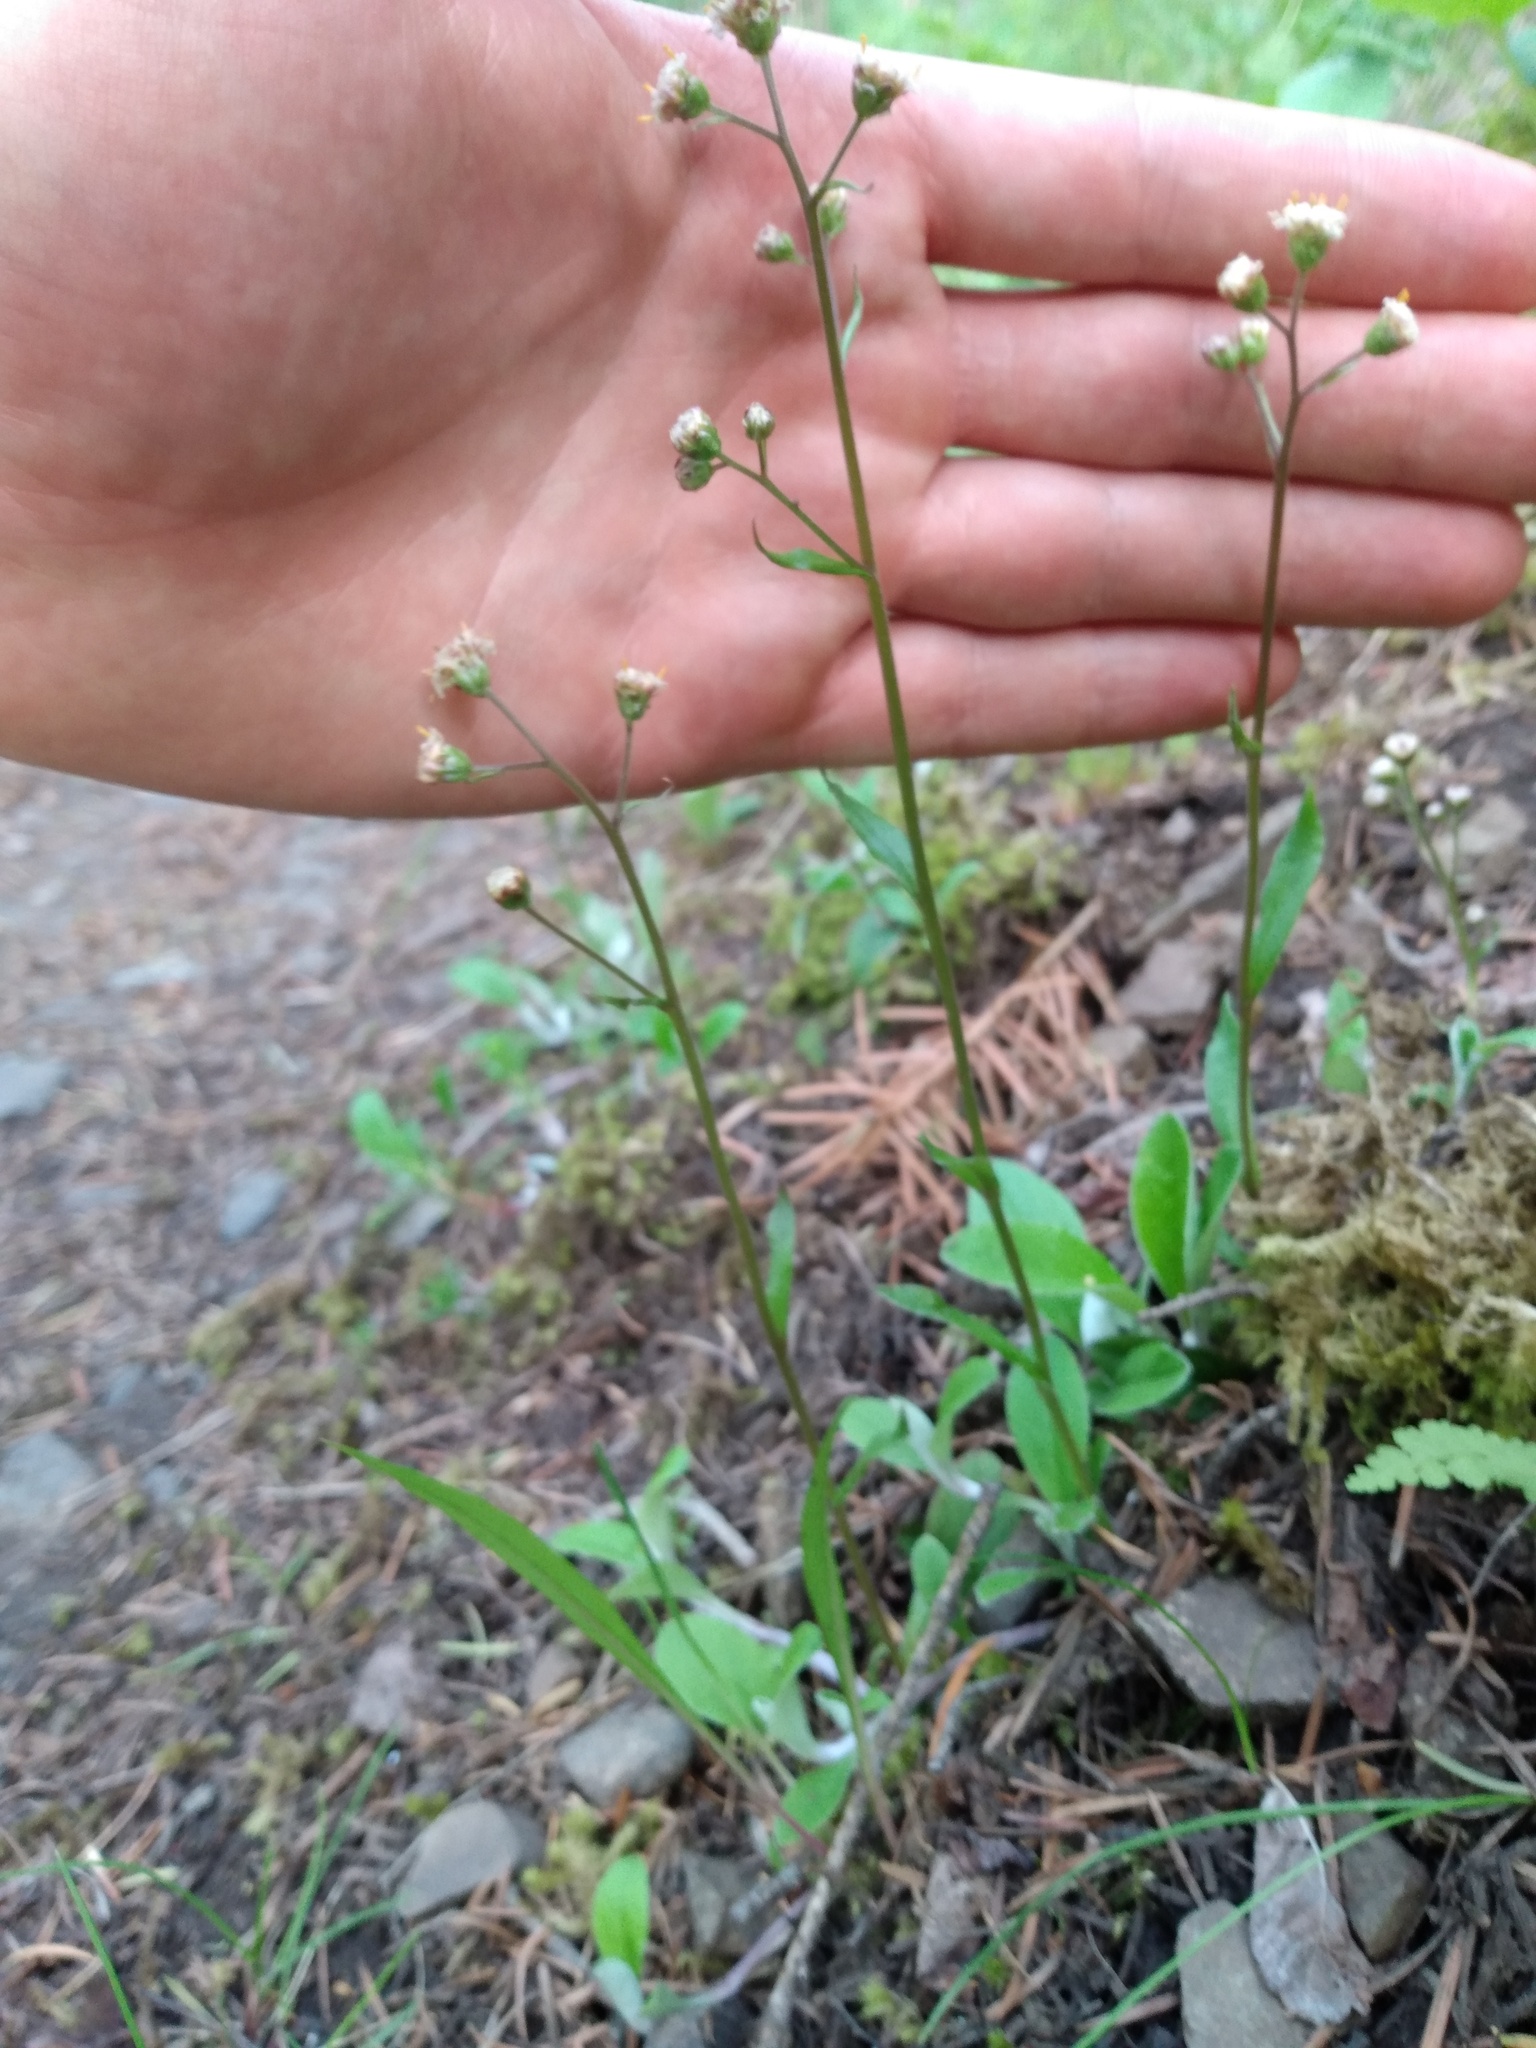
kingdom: Plantae
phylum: Tracheophyta
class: Magnoliopsida
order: Asterales
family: Asteraceae
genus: Antennaria
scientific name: Antennaria racemosa
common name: Racemose pussytoes
